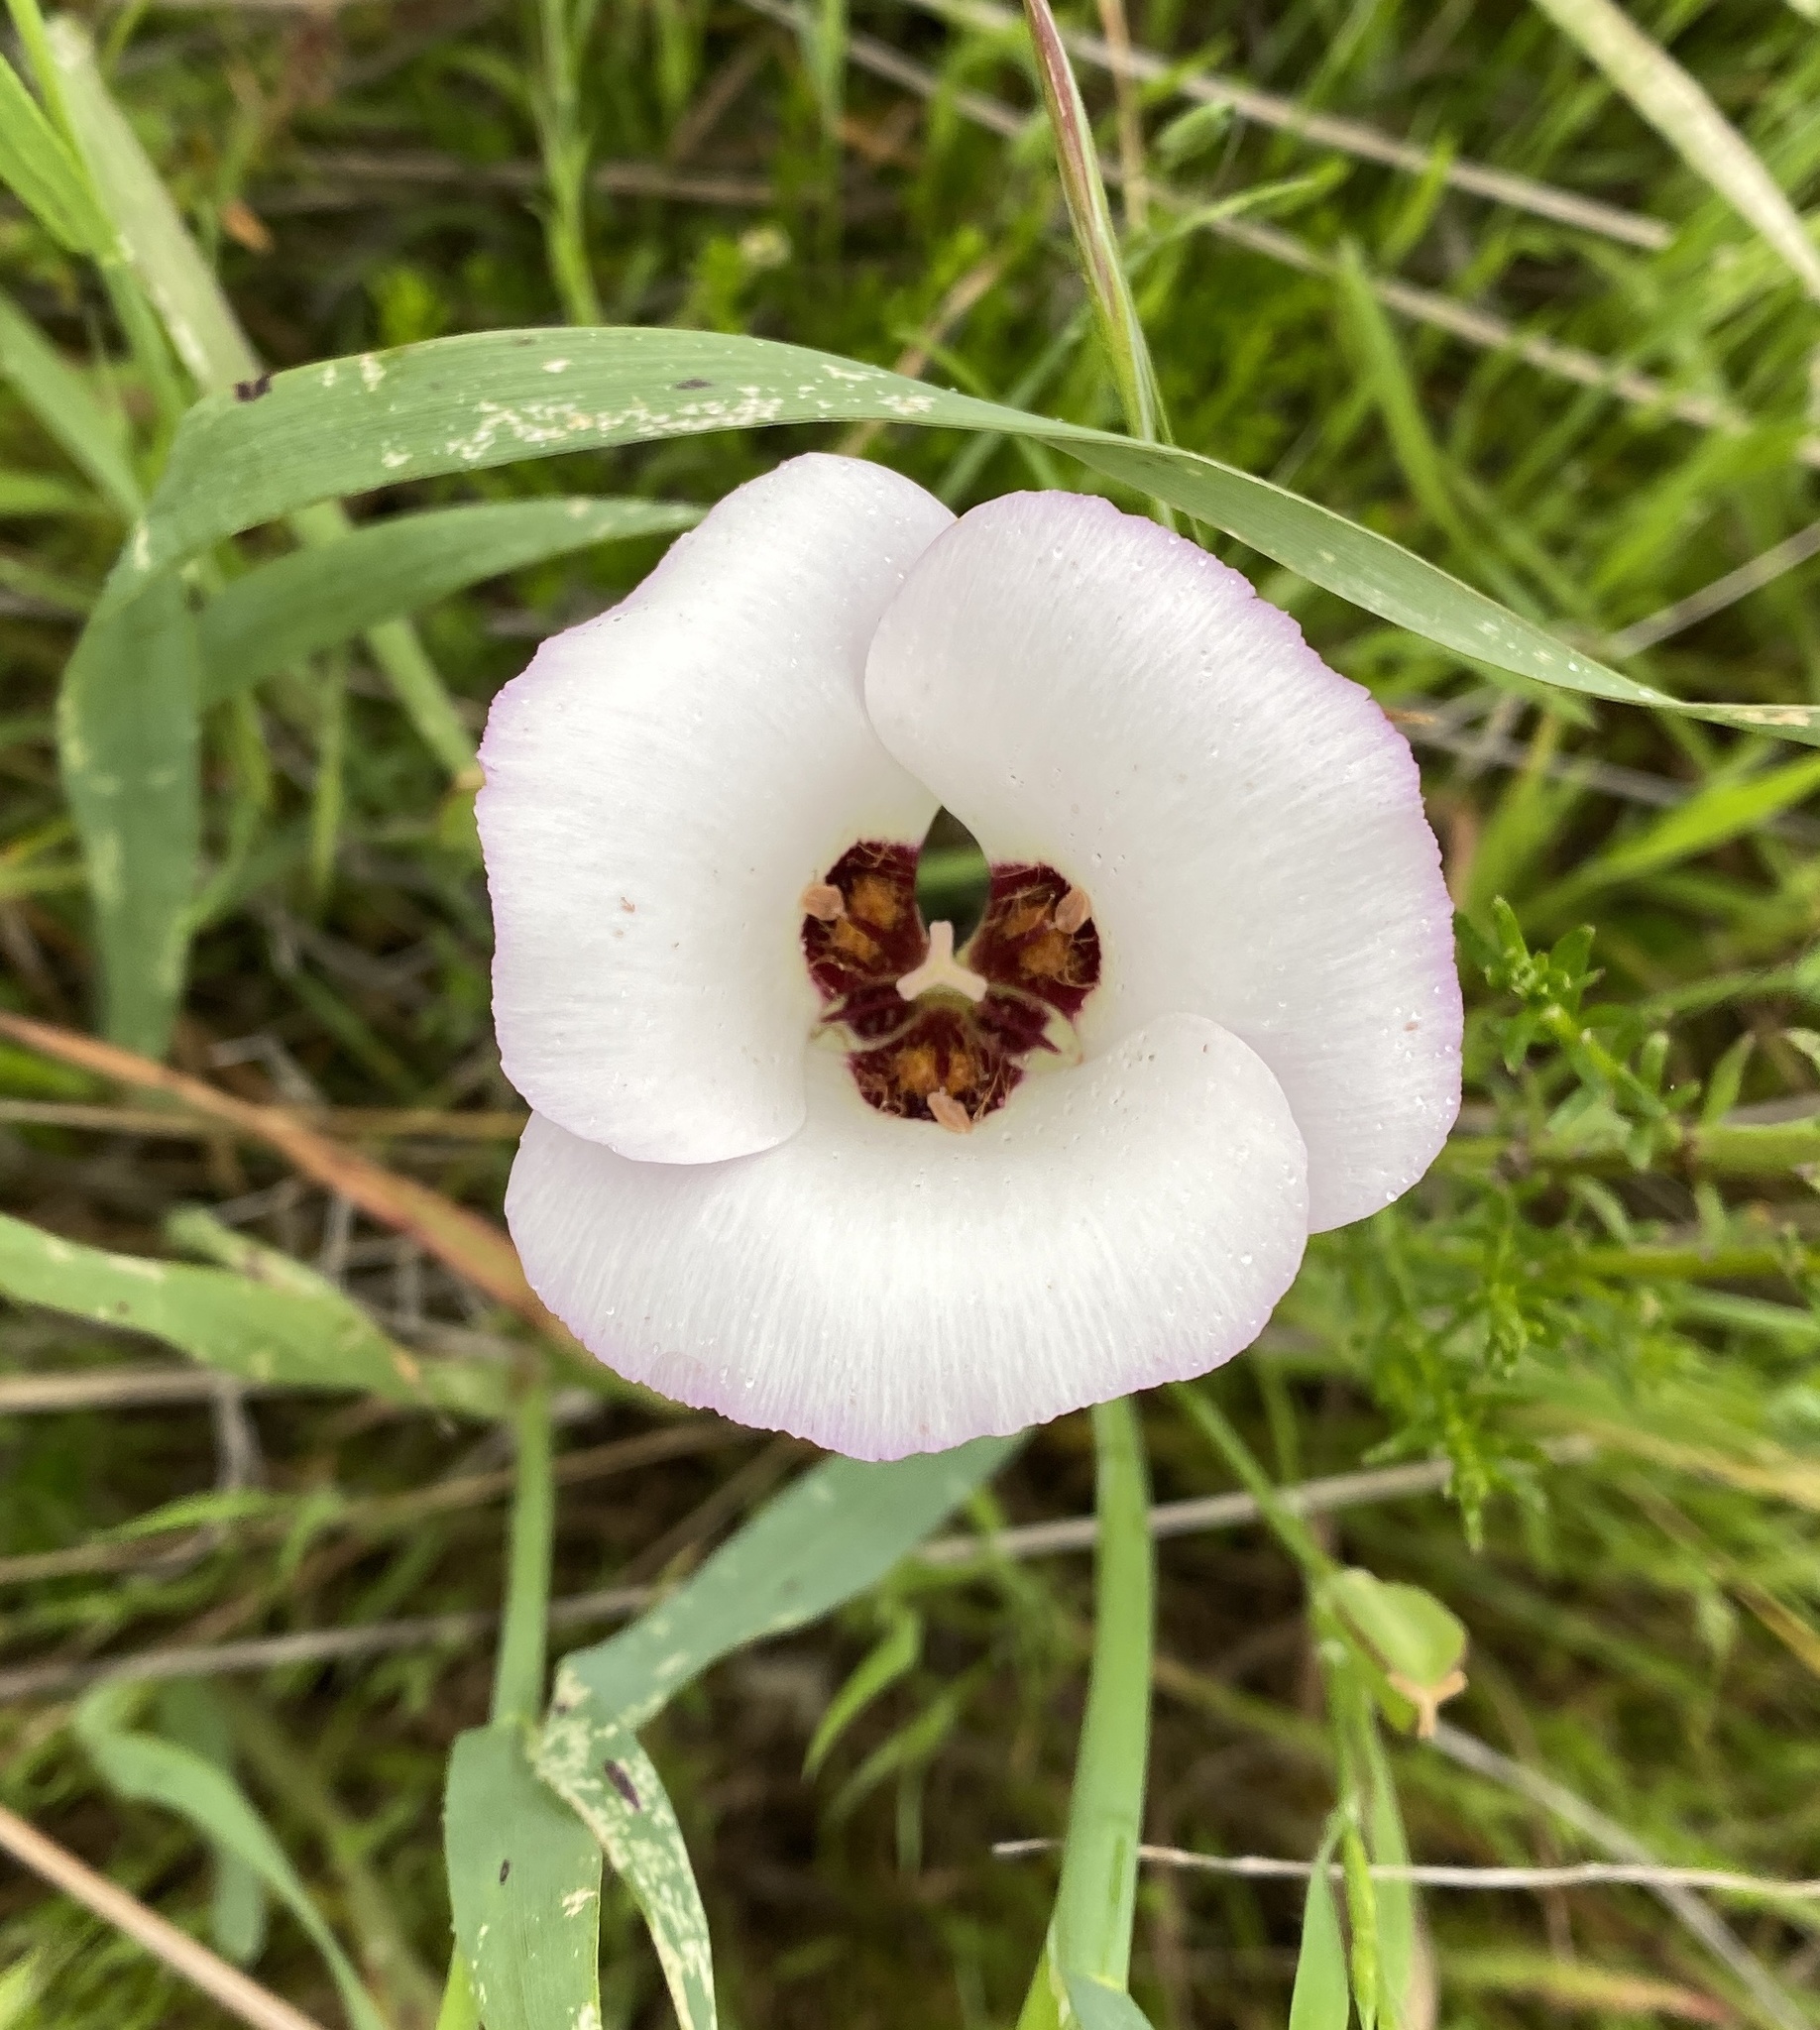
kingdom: Plantae
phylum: Tracheophyta
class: Liliopsida
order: Liliales
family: Liliaceae
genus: Calochortus
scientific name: Calochortus catalinae
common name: Catalina mariposa-lily
